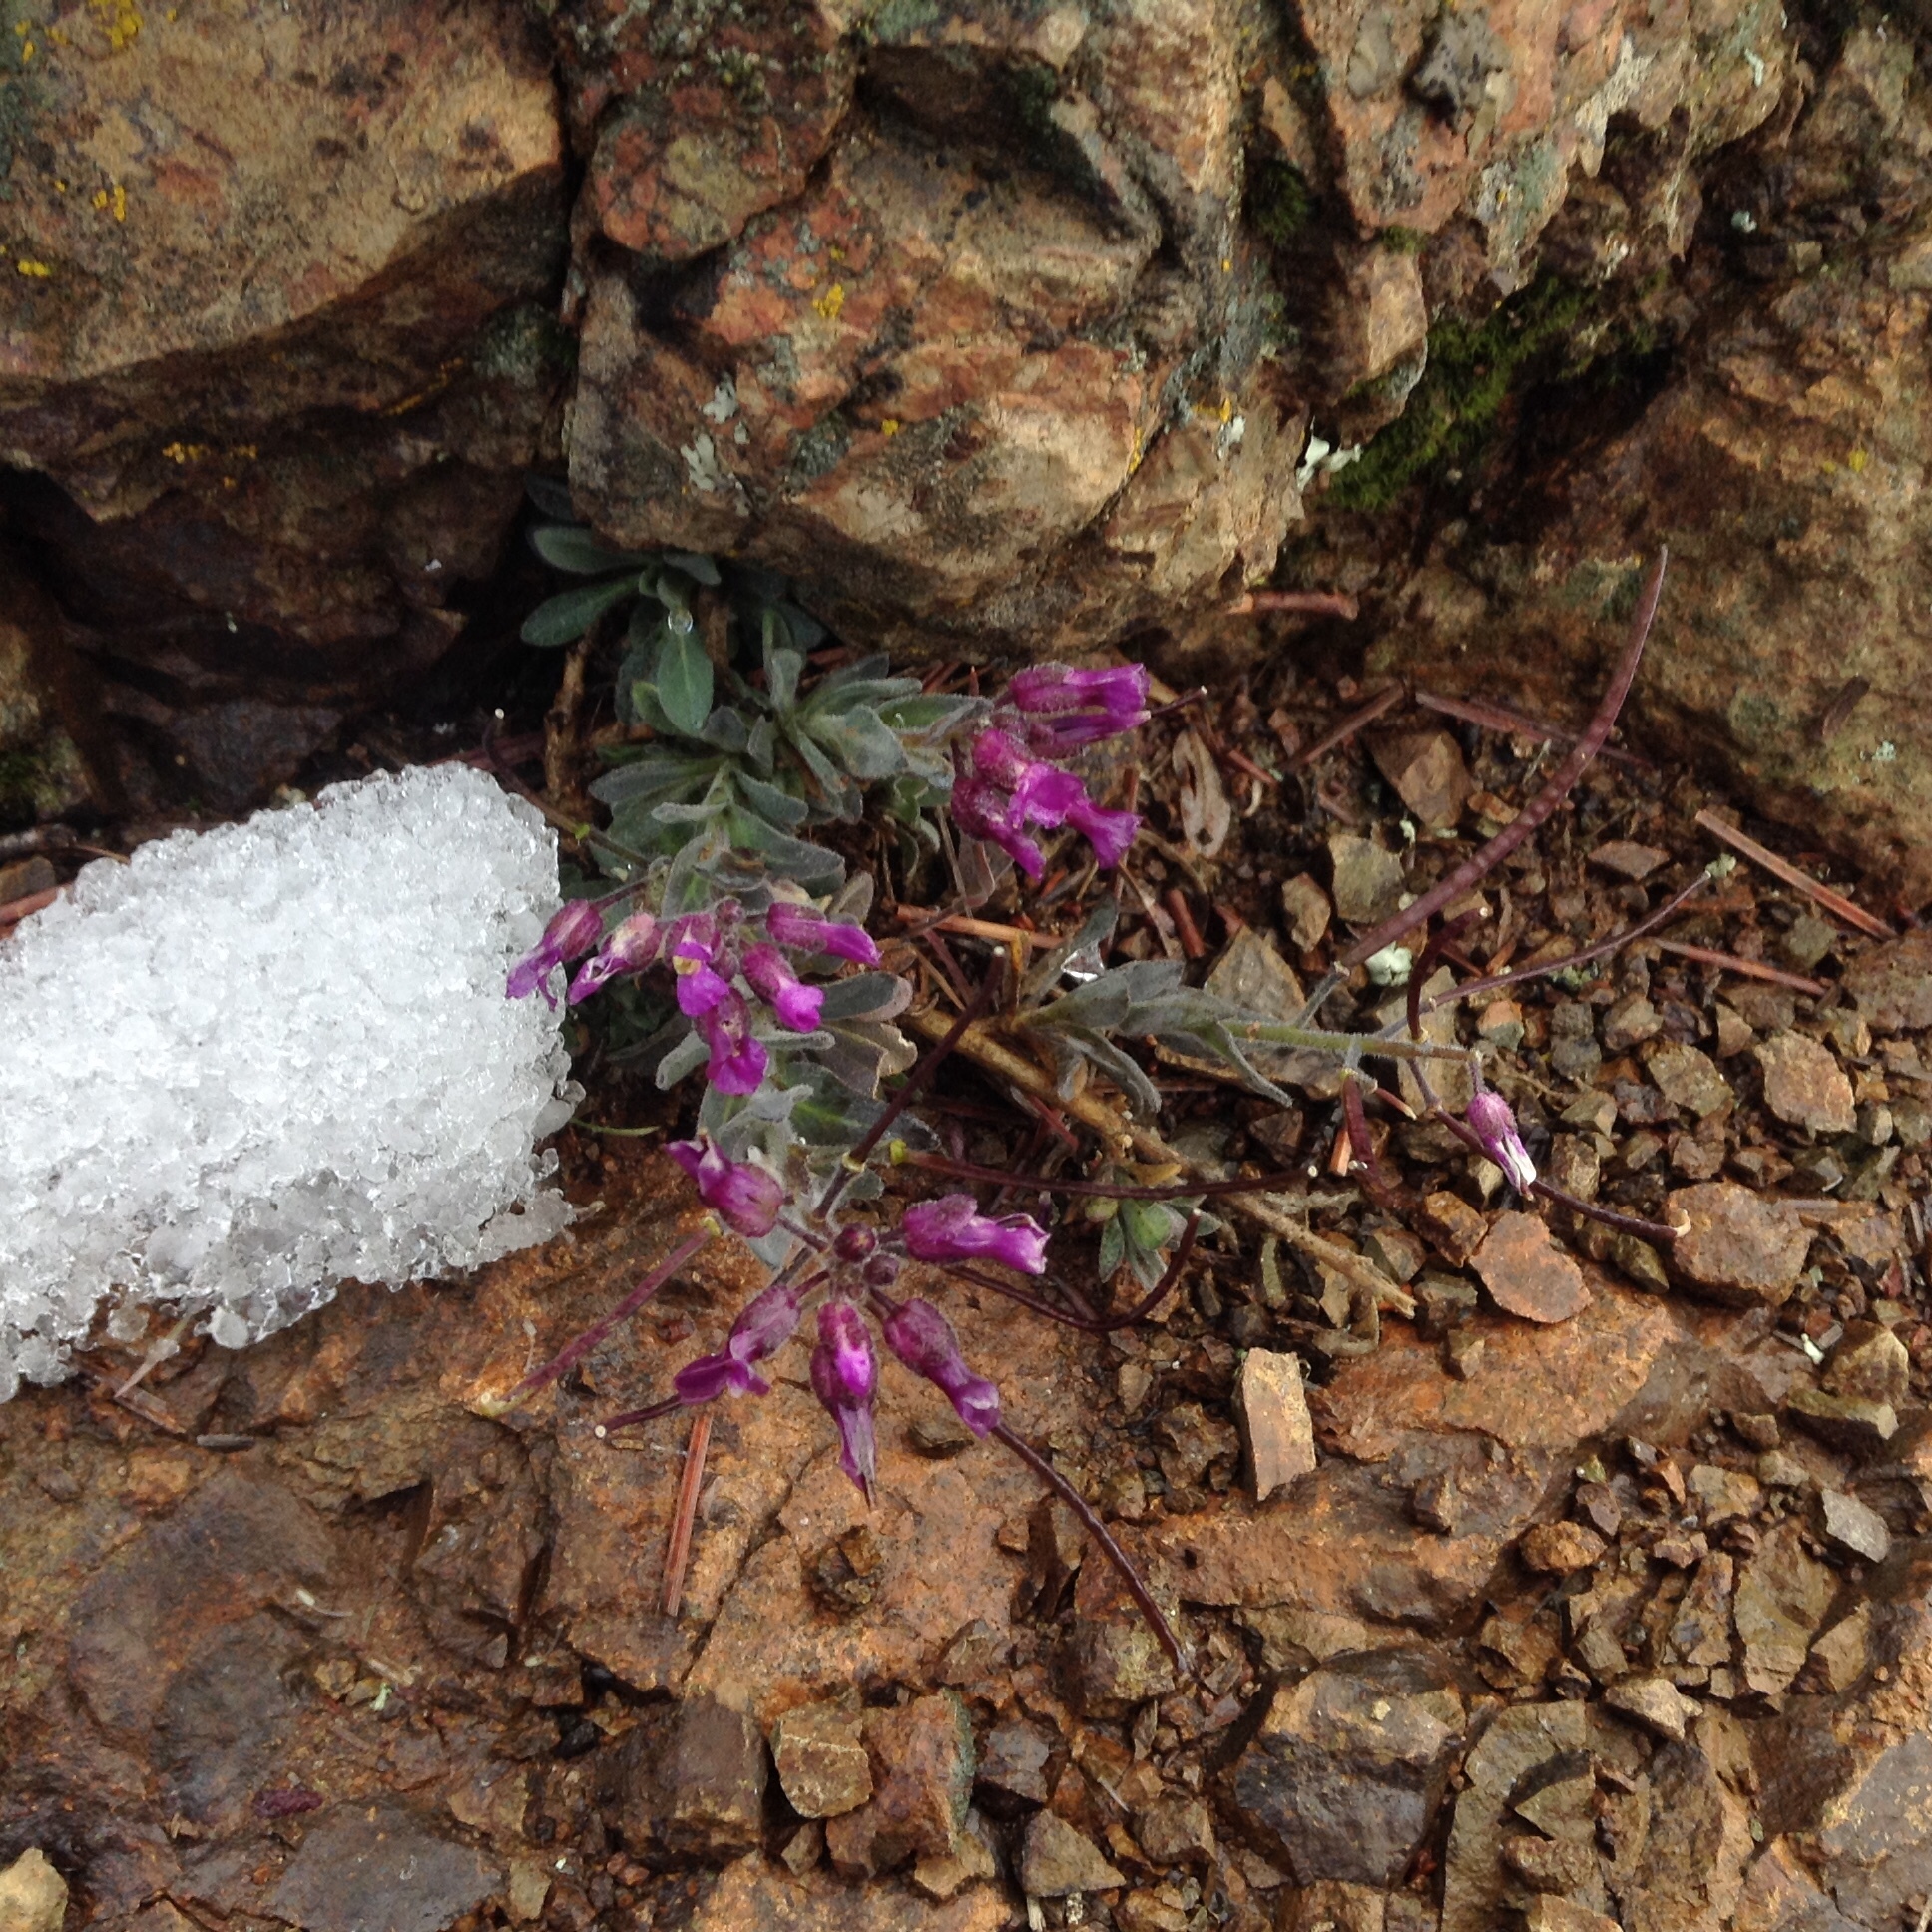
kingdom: Plantae
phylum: Tracheophyta
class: Magnoliopsida
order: Brassicales
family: Brassicaceae
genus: Boechera
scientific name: Boechera breweri
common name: Brewer's rockcress
